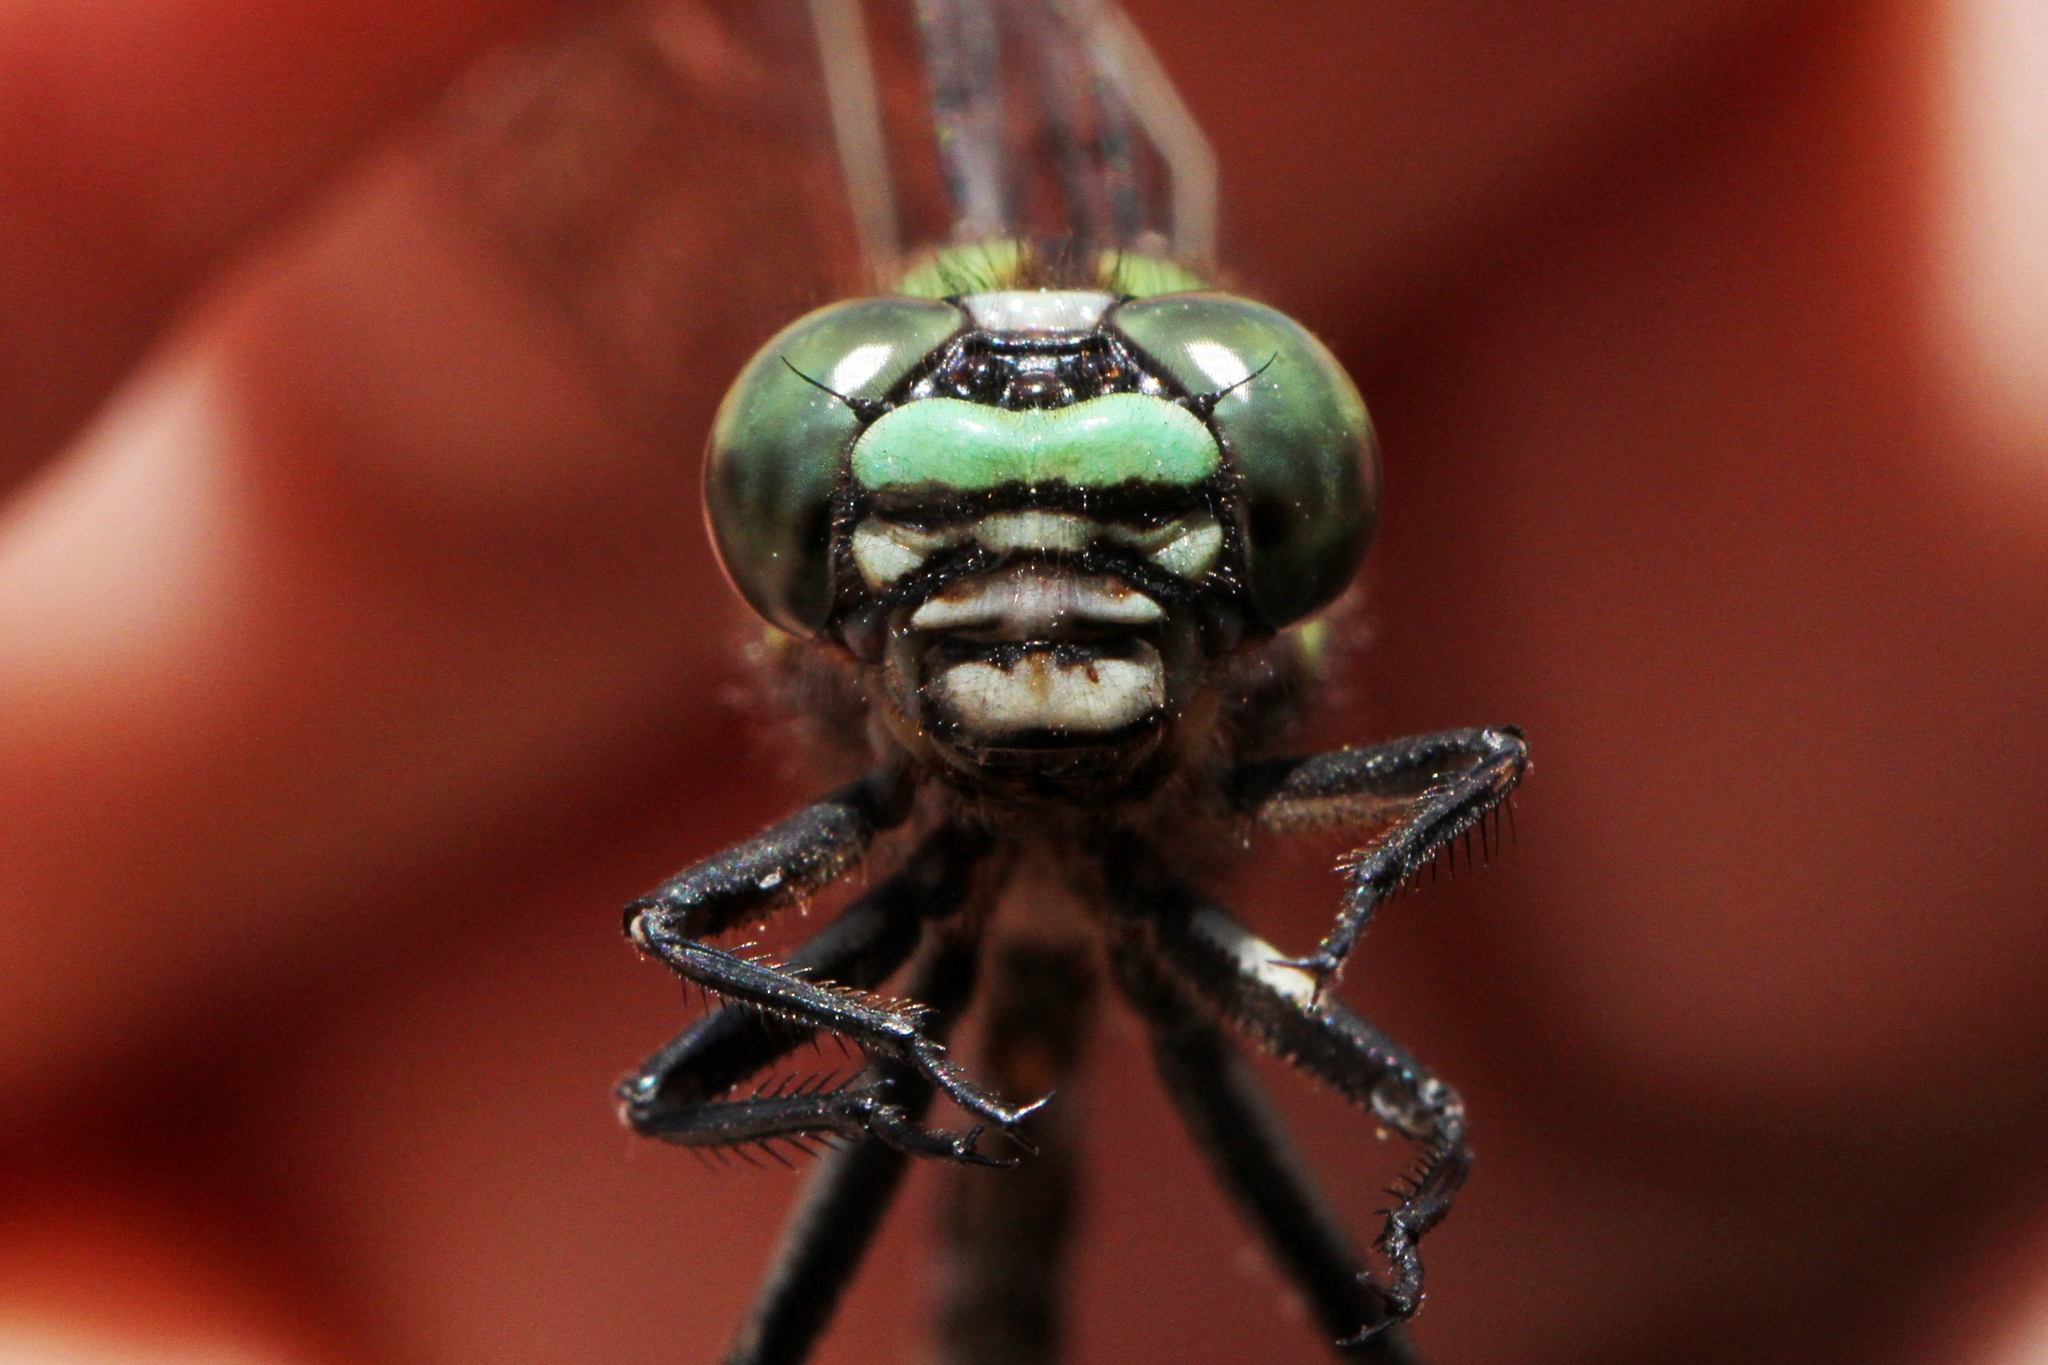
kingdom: Animalia
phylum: Arthropoda
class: Insecta
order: Odonata
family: Gomphidae
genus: Ophiogomphus
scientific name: Ophiogomphus colubrinus
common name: Boreal snaketail
